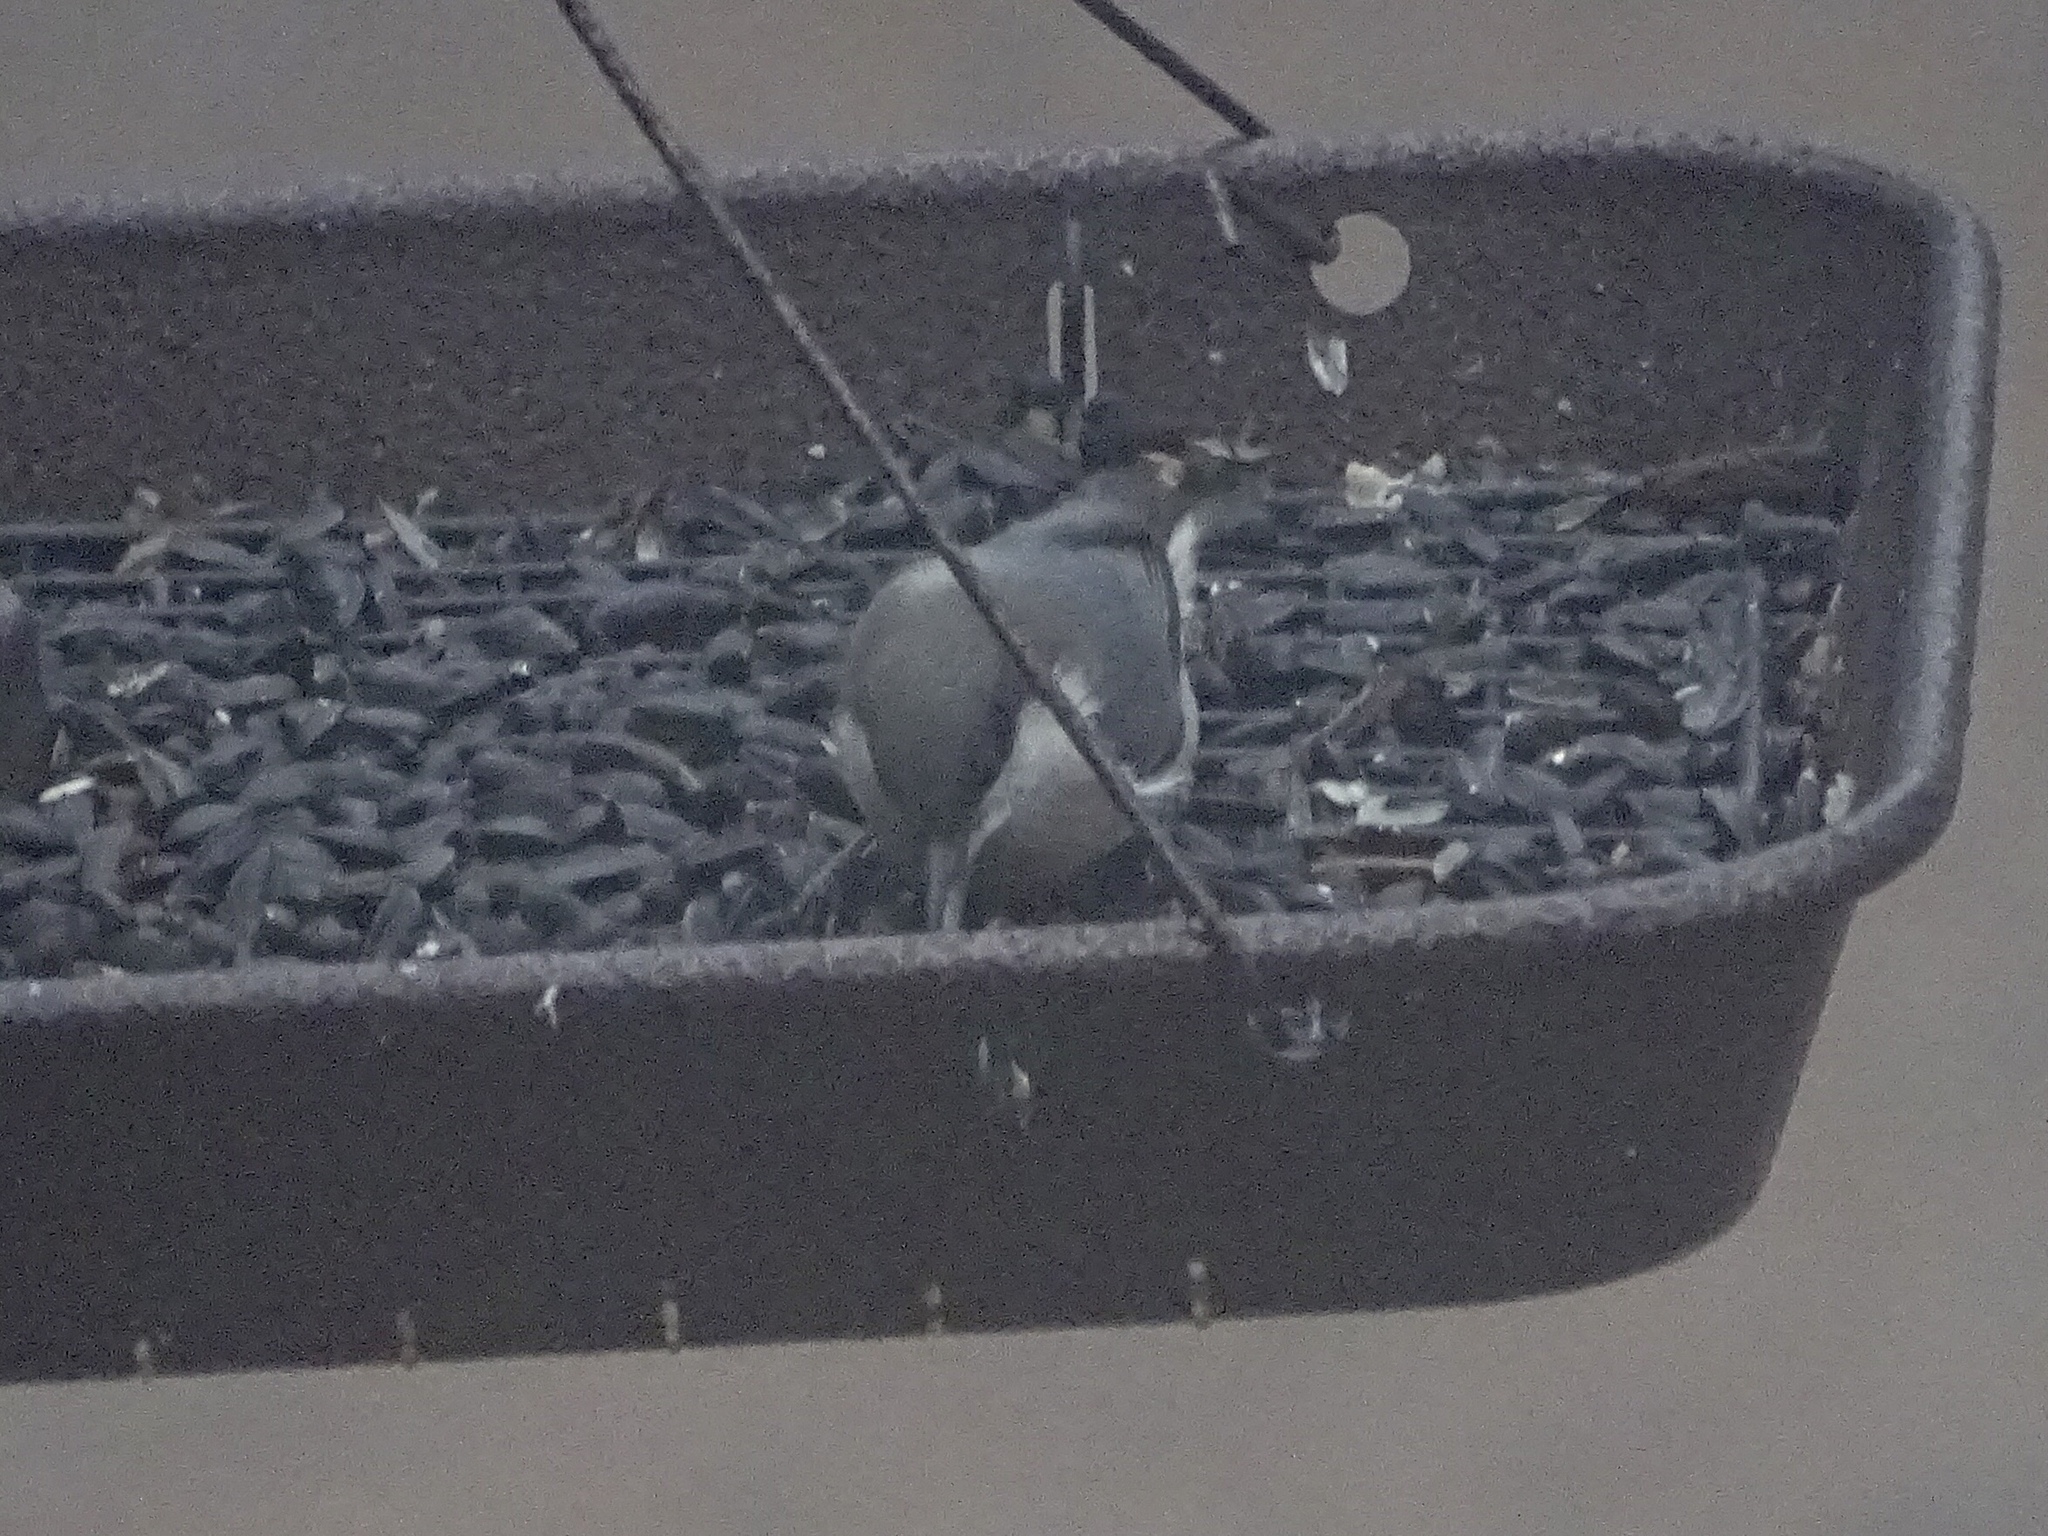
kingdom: Animalia
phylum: Chordata
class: Aves
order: Passeriformes
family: Sittidae
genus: Sitta
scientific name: Sitta pygmaea
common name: Pygmy nuthatch
